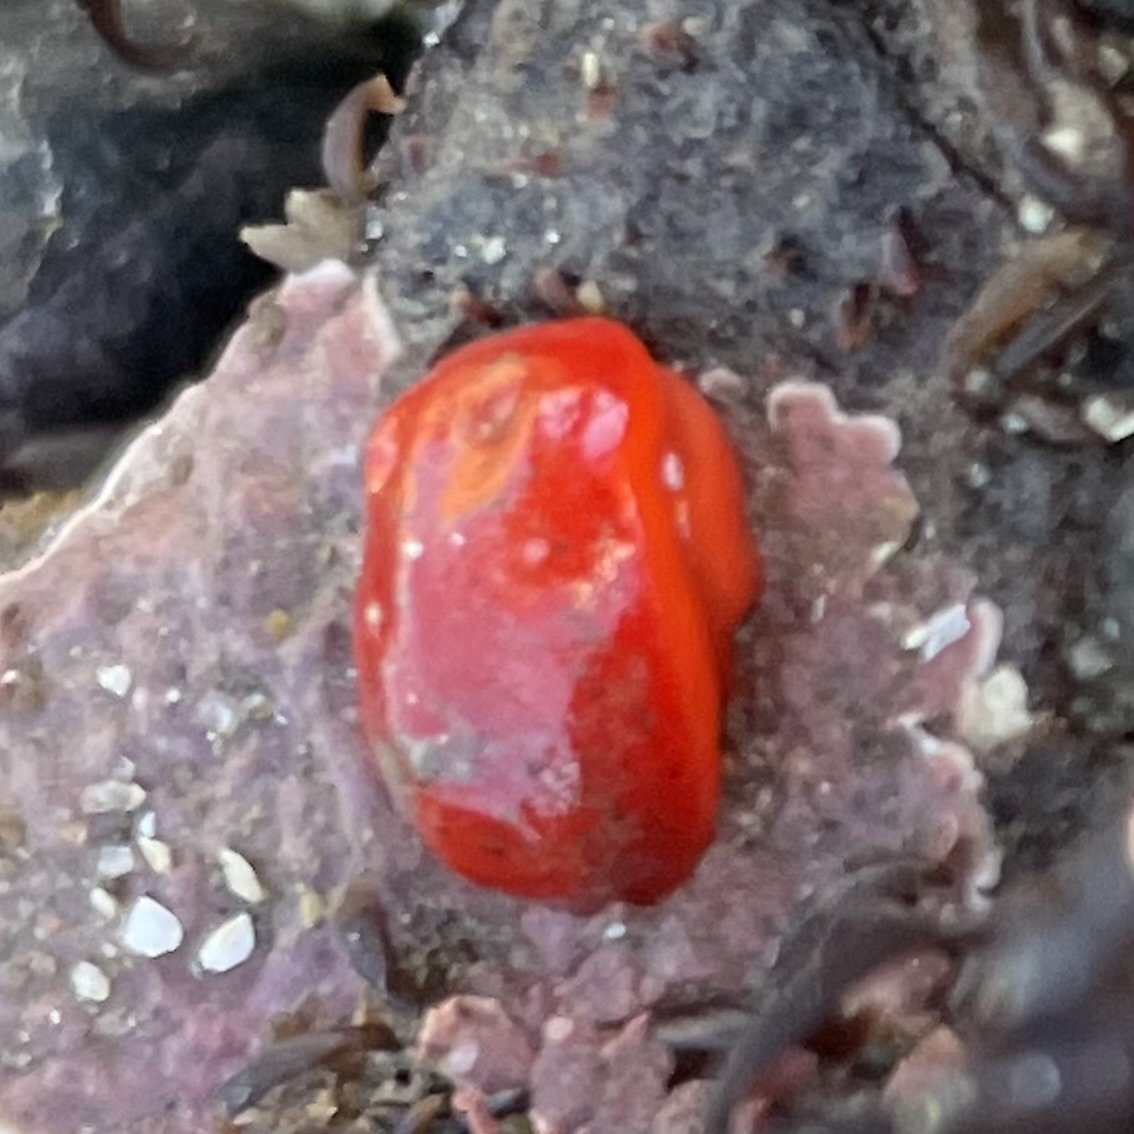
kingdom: Animalia
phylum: Mollusca
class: Gastropoda
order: Nudibranchia
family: Discodorididae
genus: Rostanga
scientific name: Rostanga pulchra
